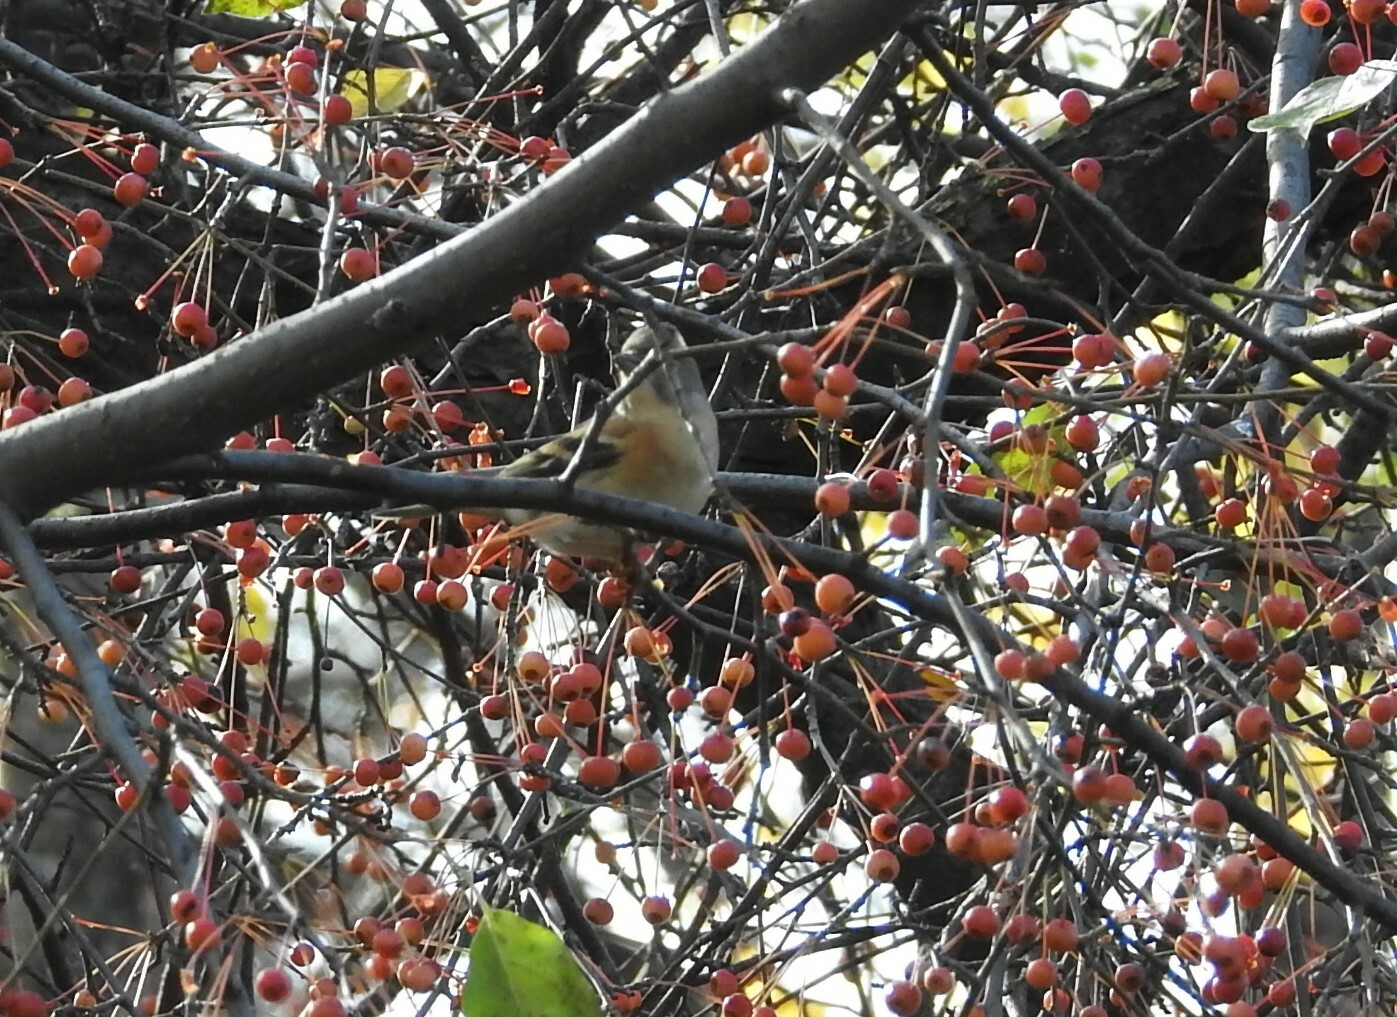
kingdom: Animalia
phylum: Chordata
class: Aves
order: Passeriformes
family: Fringillidae
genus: Fringilla
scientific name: Fringilla montifringilla
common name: Brambling
